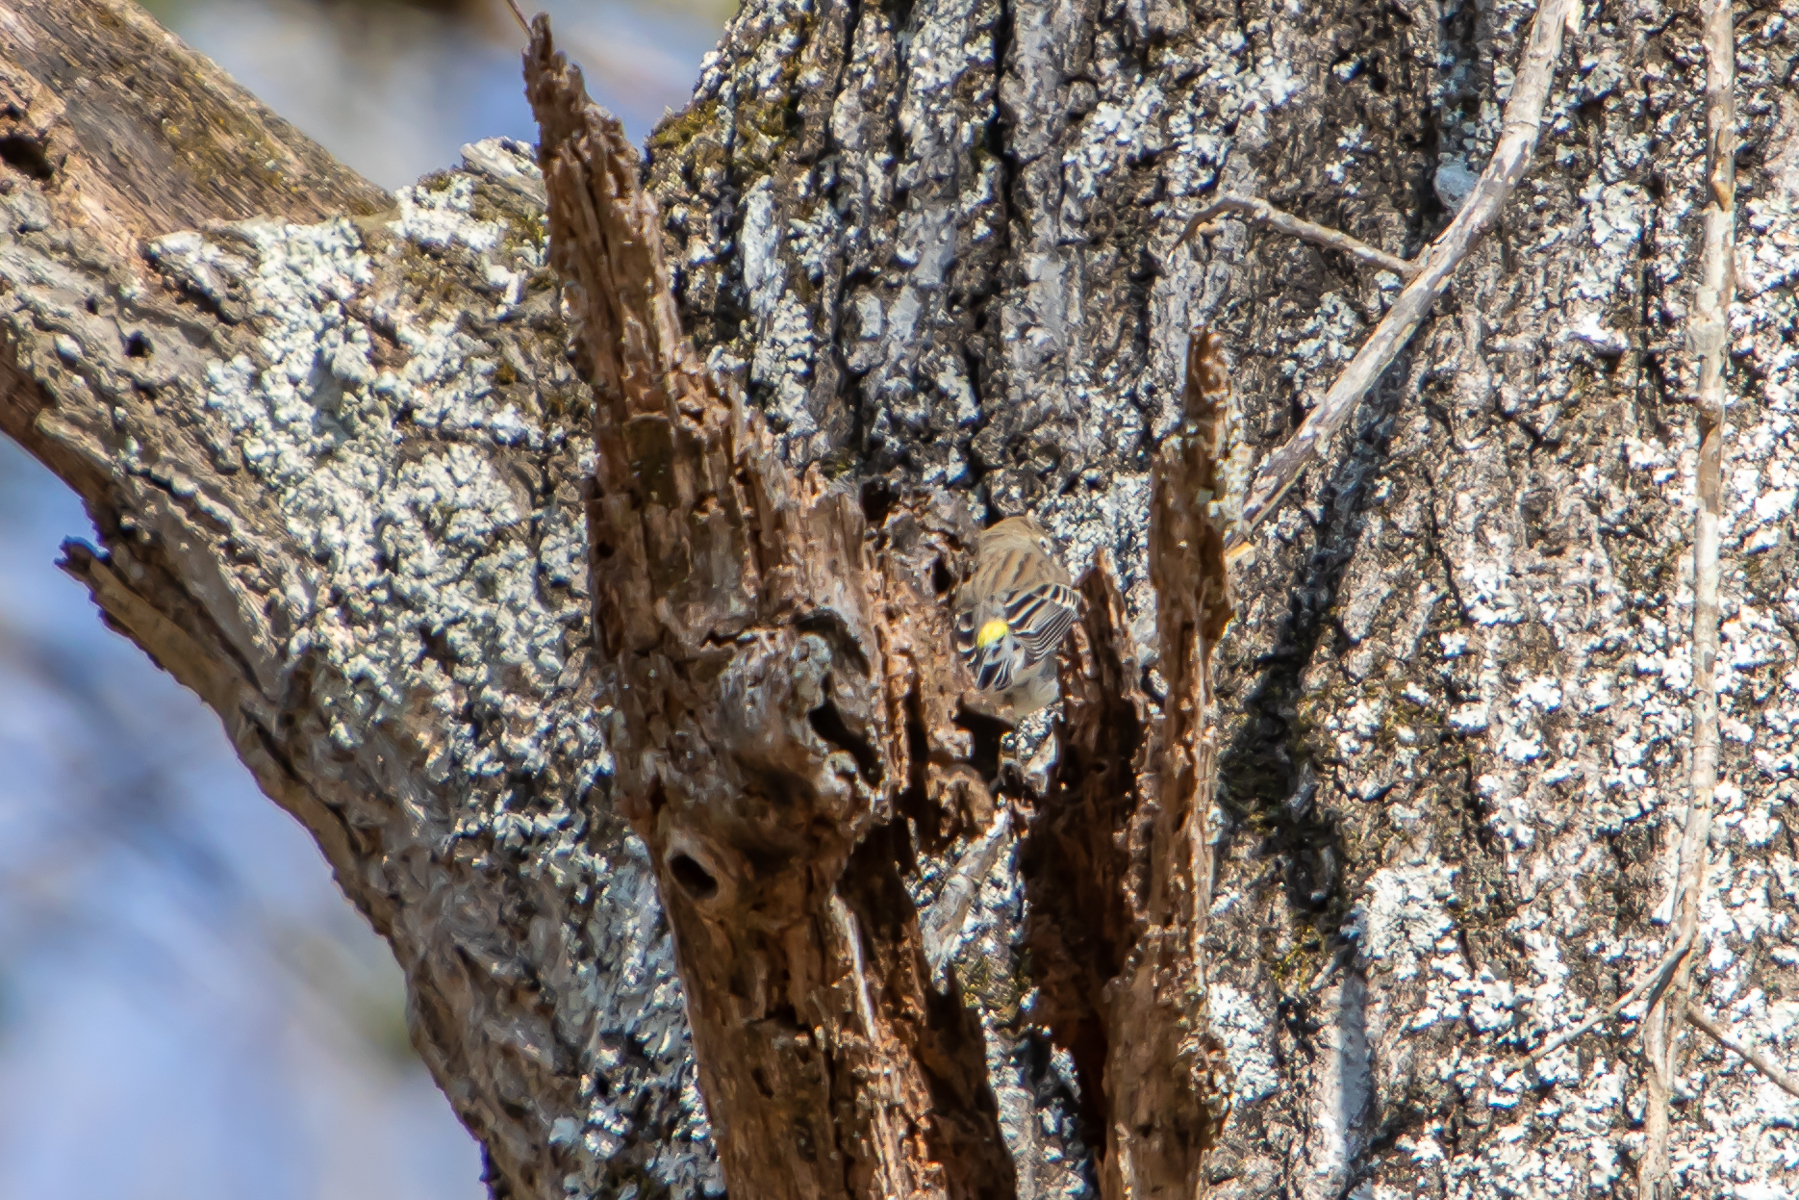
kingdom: Animalia
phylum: Chordata
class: Aves
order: Passeriformes
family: Parulidae
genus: Setophaga
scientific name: Setophaga coronata
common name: Myrtle warbler
